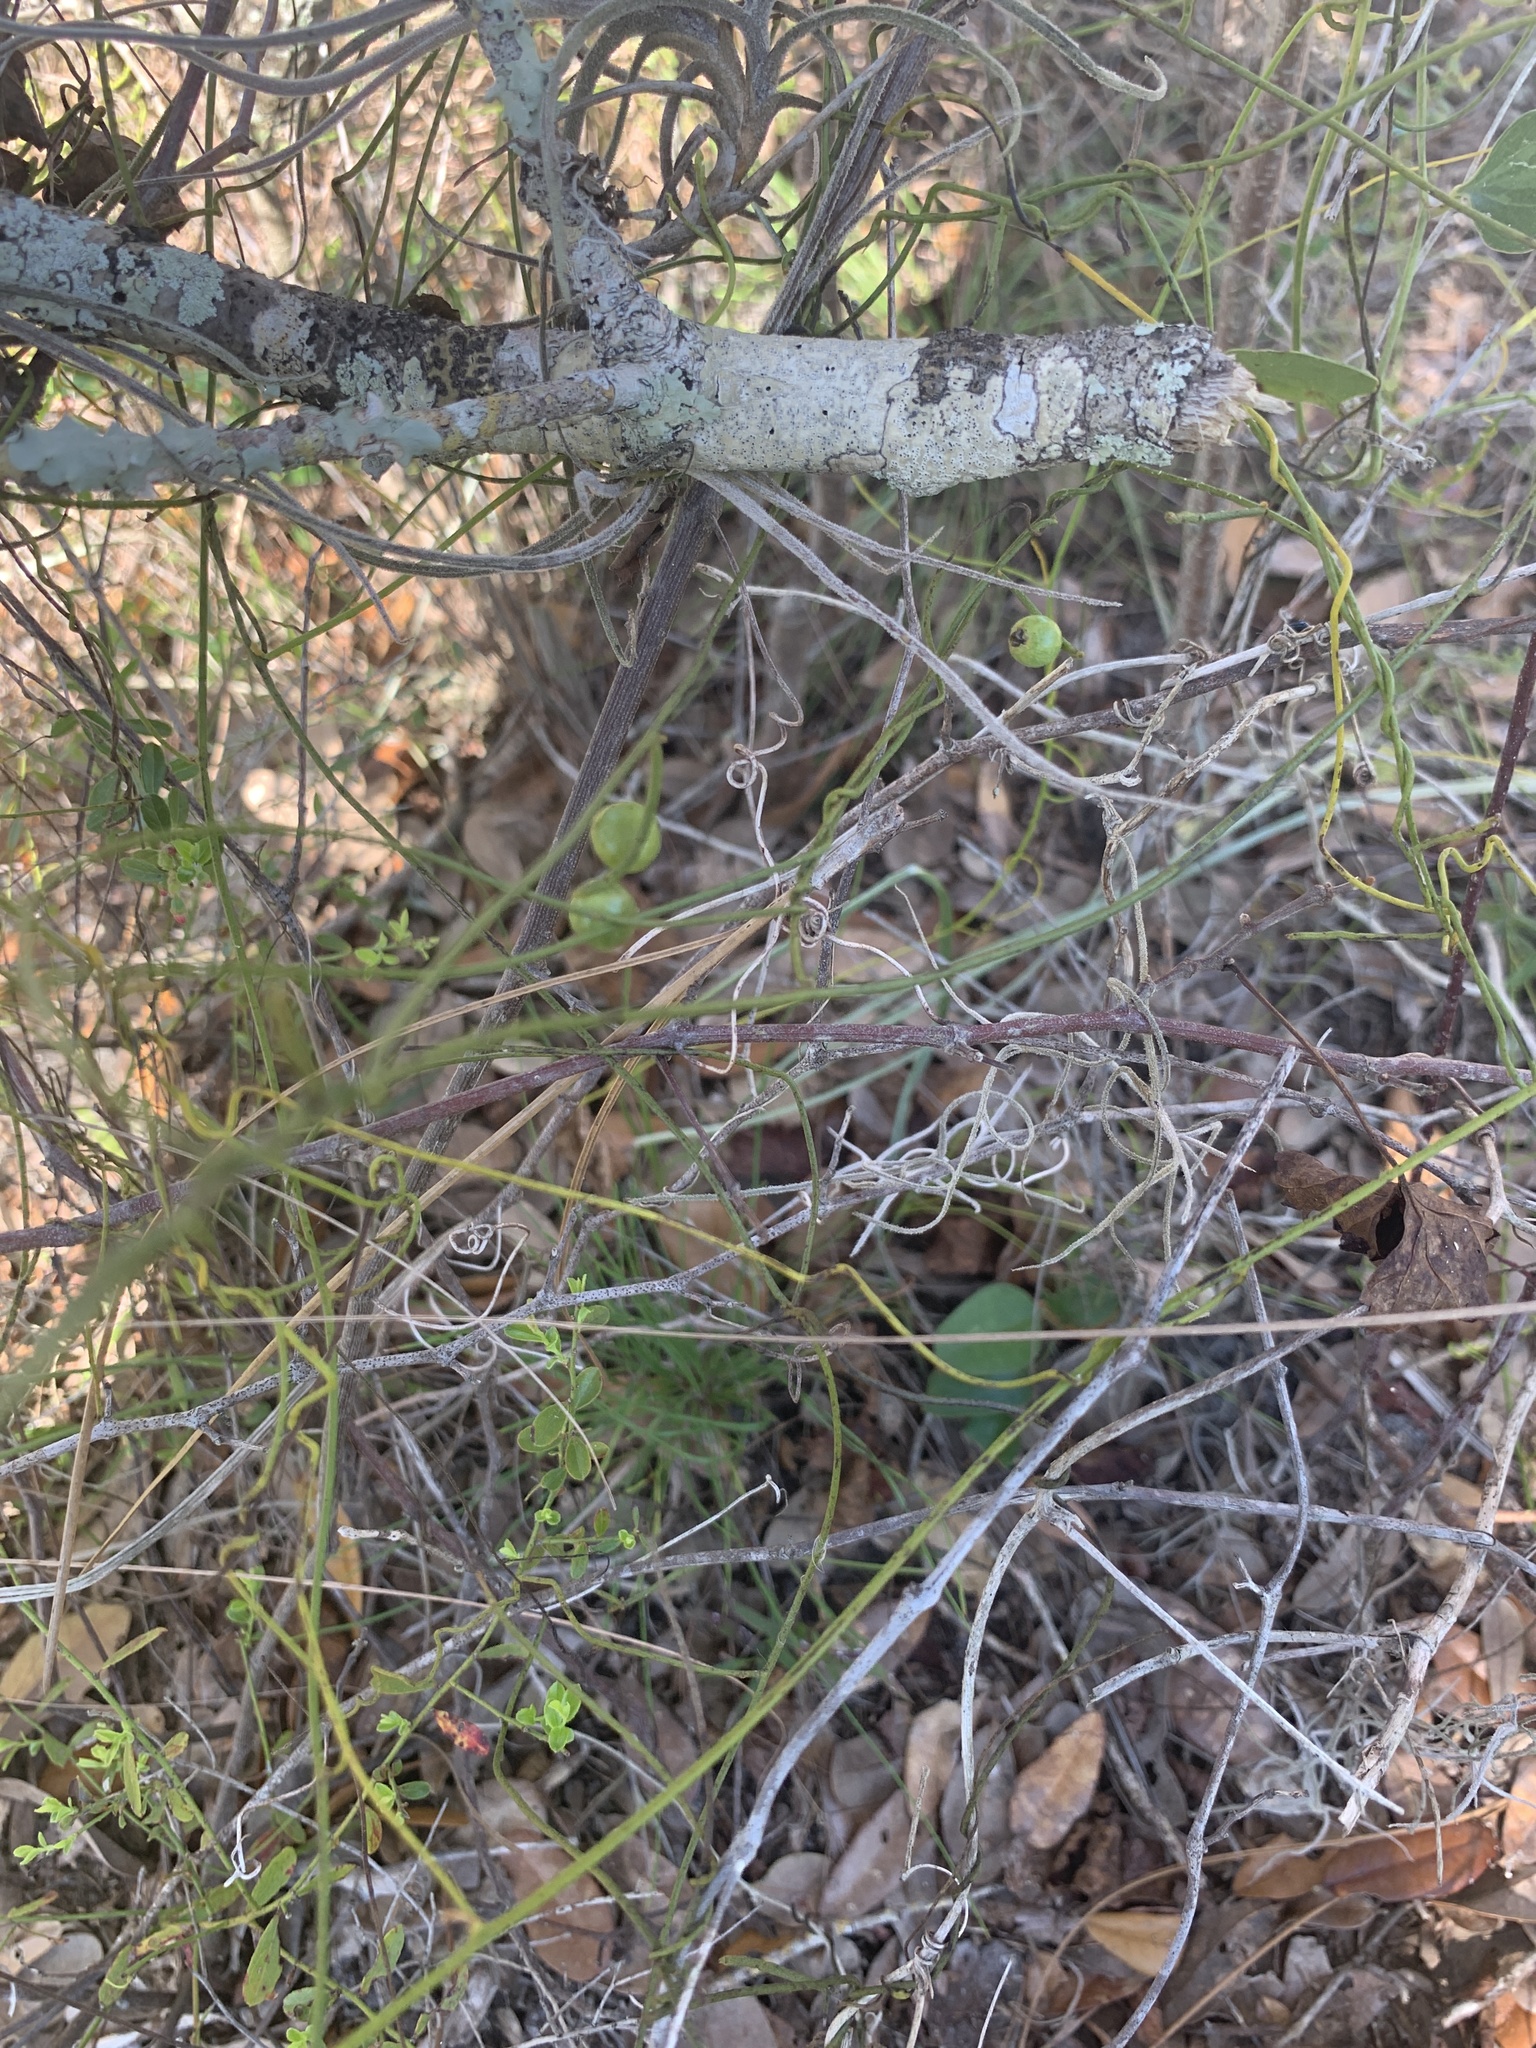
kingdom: Plantae
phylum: Tracheophyta
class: Magnoliopsida
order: Laurales
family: Lauraceae
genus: Cassytha
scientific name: Cassytha filiformis
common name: Dodder-laurel
